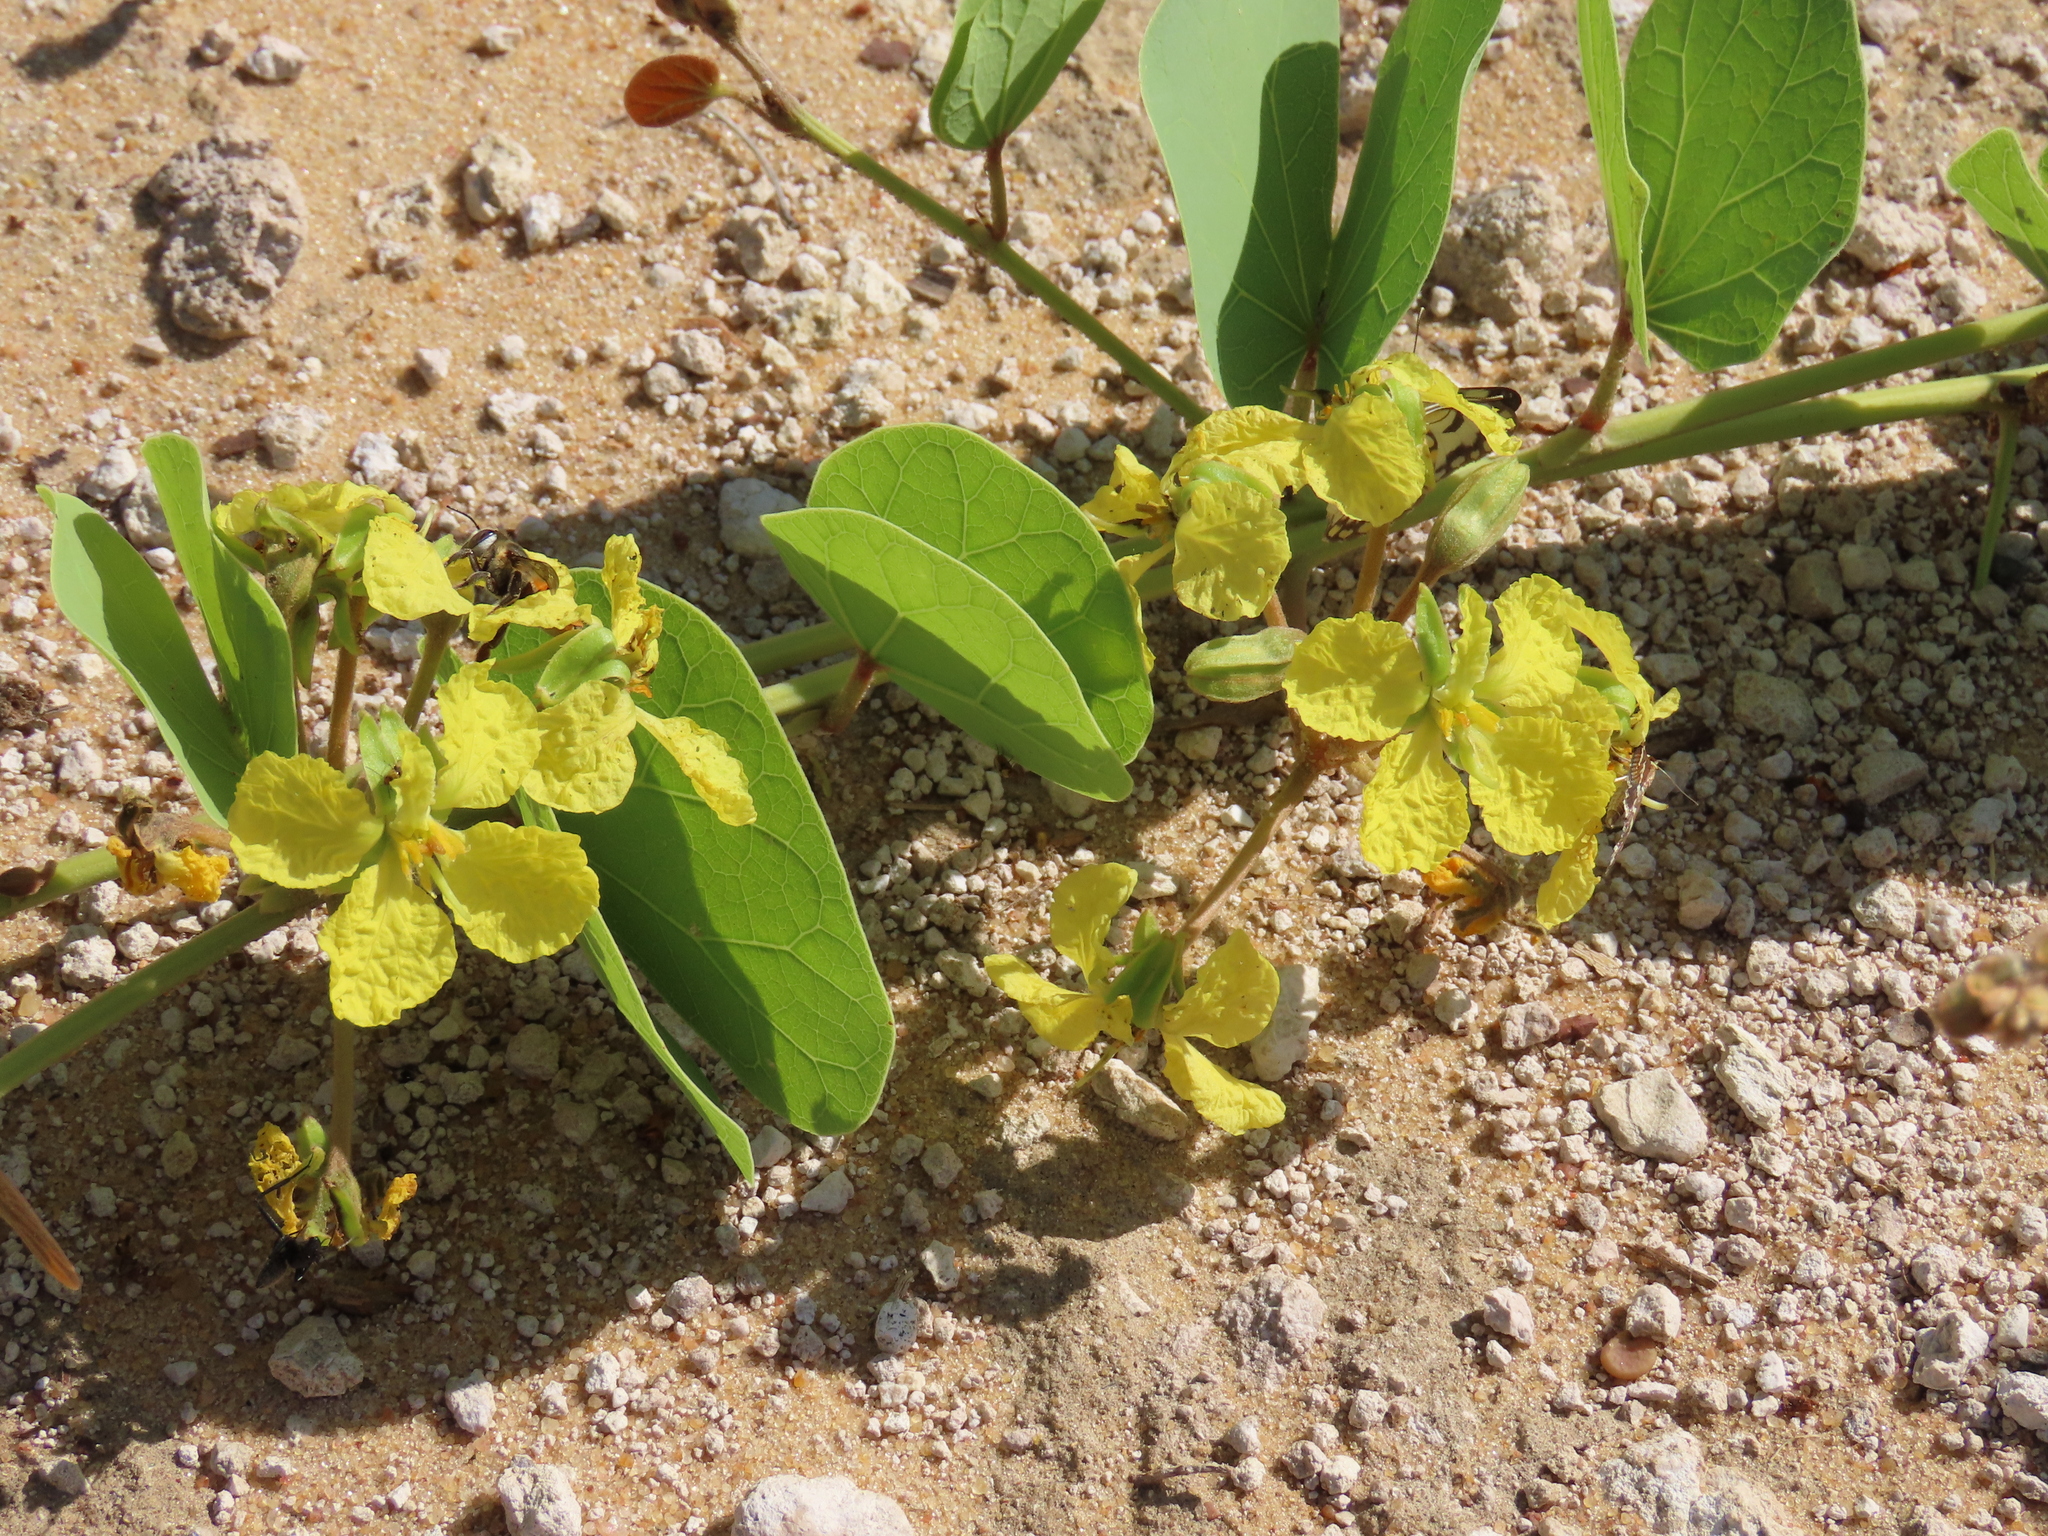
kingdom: Plantae
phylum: Tracheophyta
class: Magnoliopsida
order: Fabales
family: Fabaceae
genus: Tylosema
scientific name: Tylosema esculentum
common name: Marama-bean
